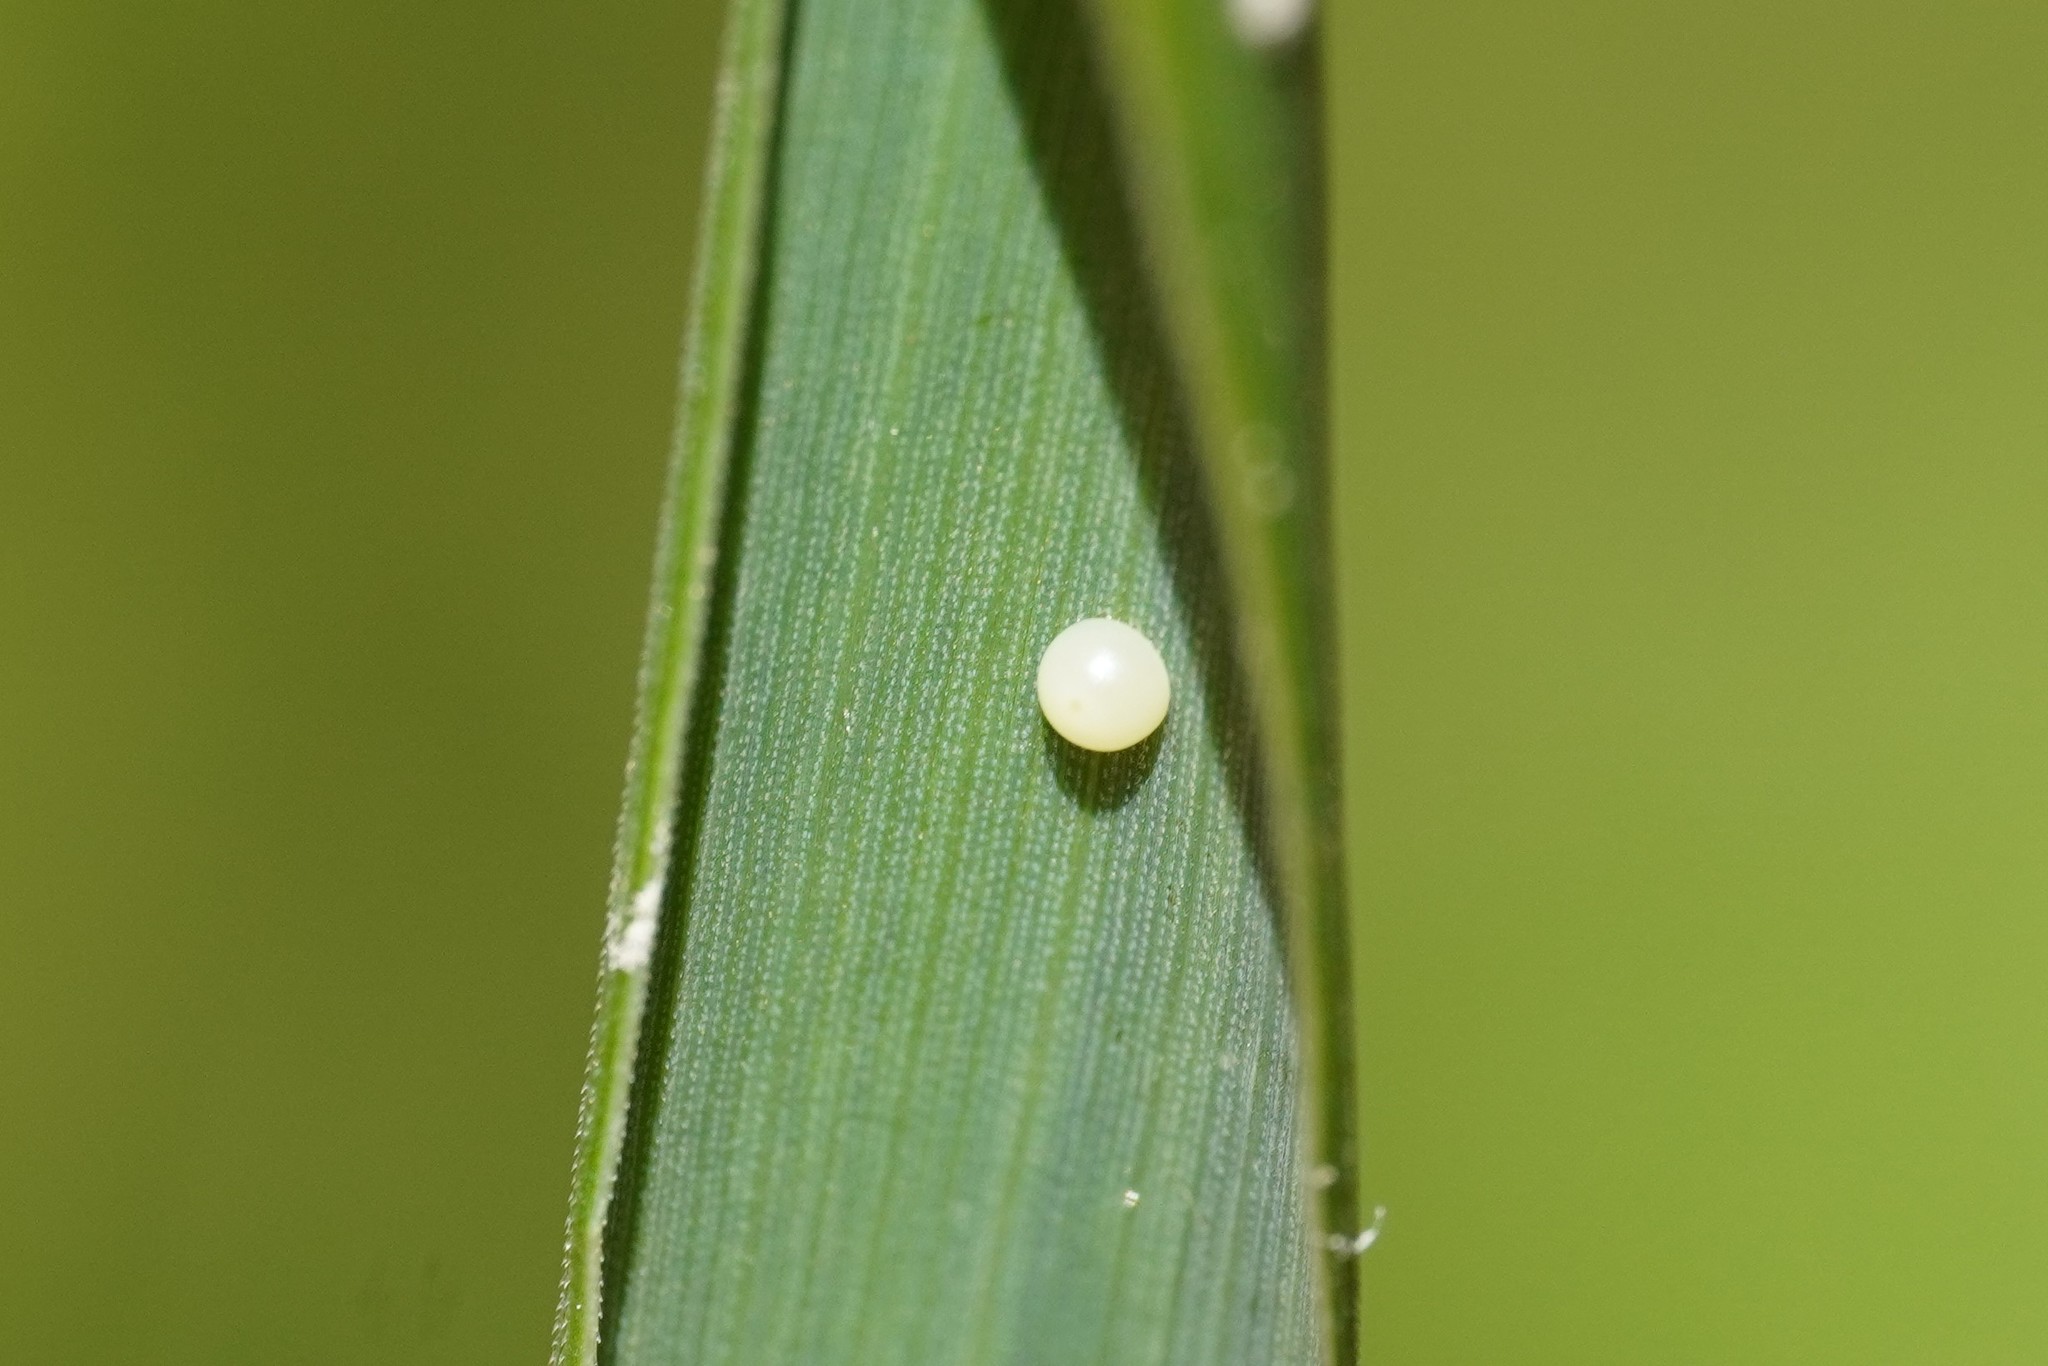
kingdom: Animalia
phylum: Arthropoda
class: Insecta
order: Lepidoptera
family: Hesperiidae
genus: Ochlodes
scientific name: Ochlodes venata
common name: Large skipper
